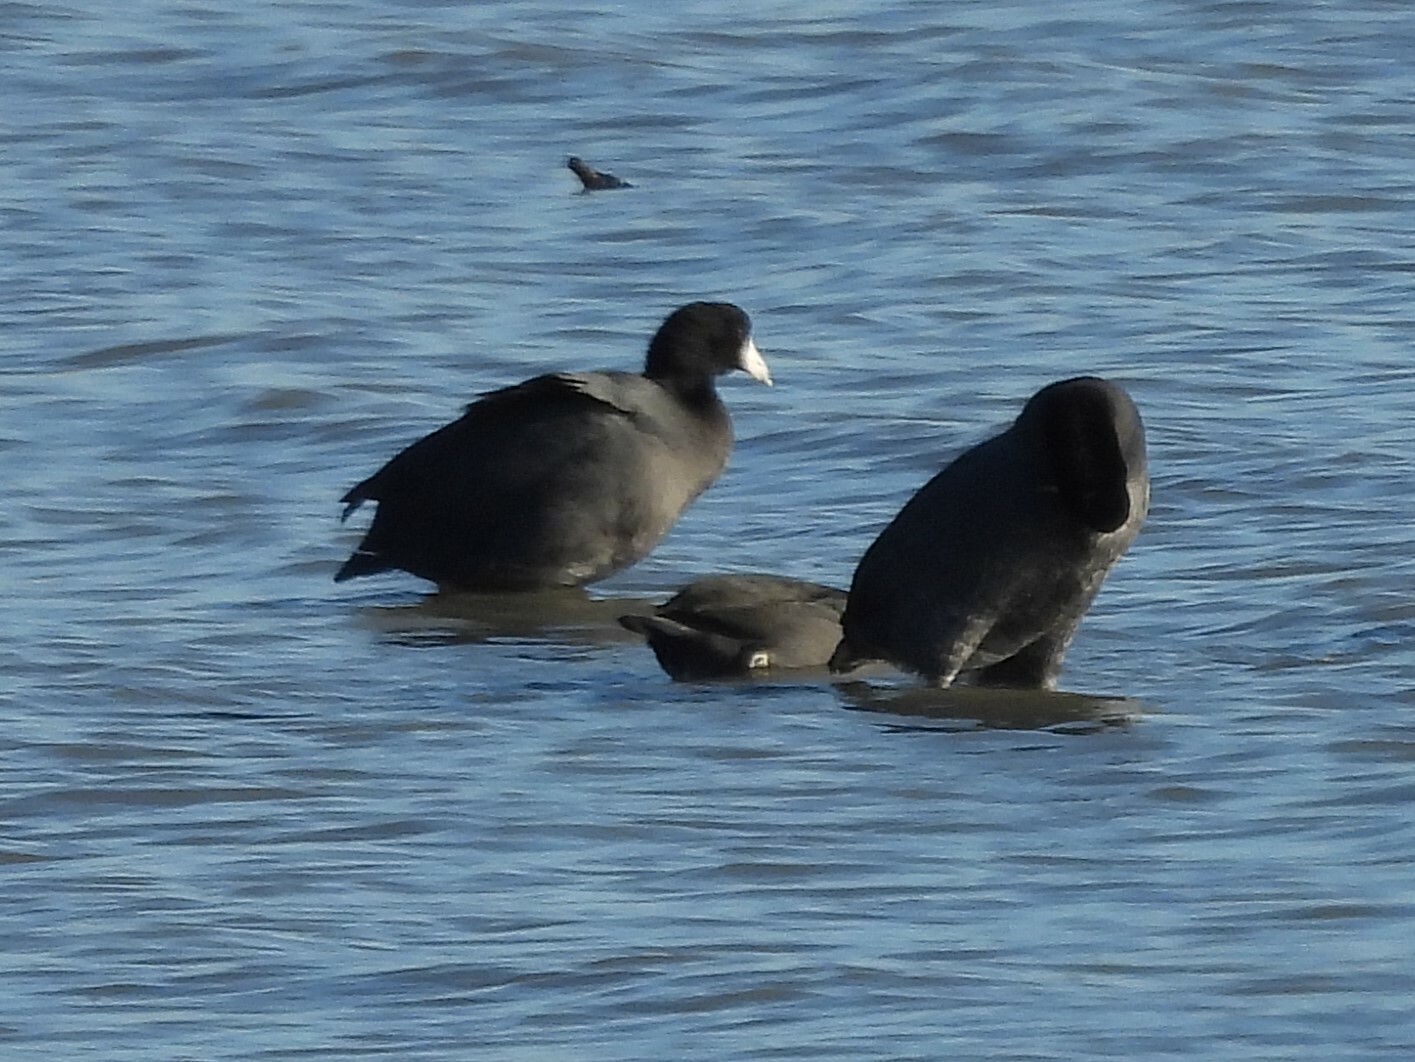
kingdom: Animalia
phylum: Chordata
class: Aves
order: Gruiformes
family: Rallidae
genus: Fulica
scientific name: Fulica americana
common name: American coot
